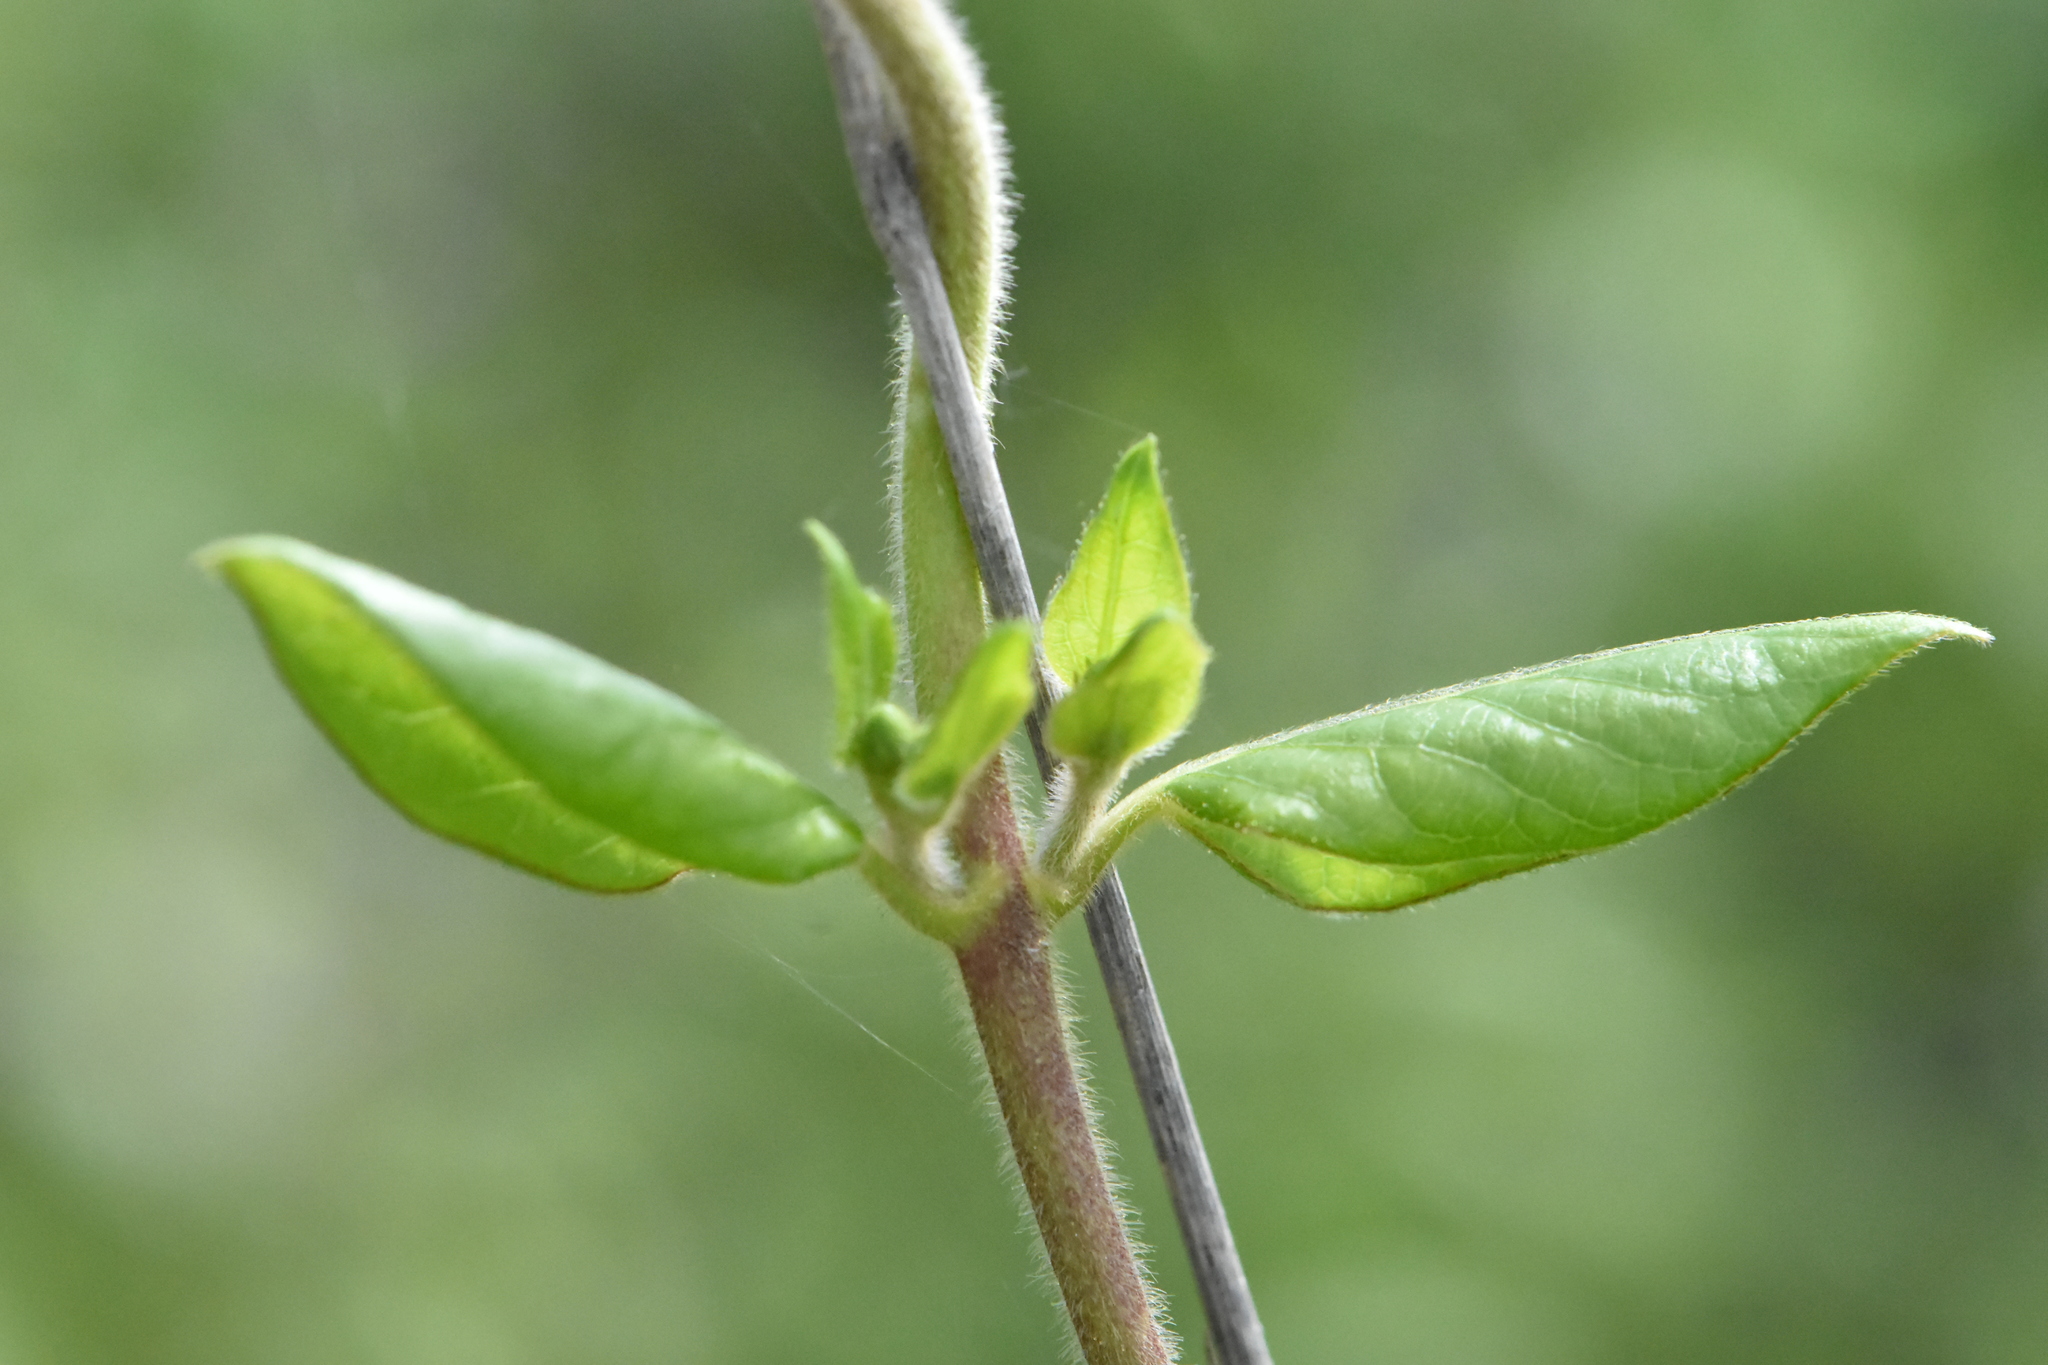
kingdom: Plantae
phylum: Tracheophyta
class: Magnoliopsida
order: Dipsacales
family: Caprifoliaceae
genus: Lonicera
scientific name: Lonicera japonica
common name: Japanese honeysuckle
